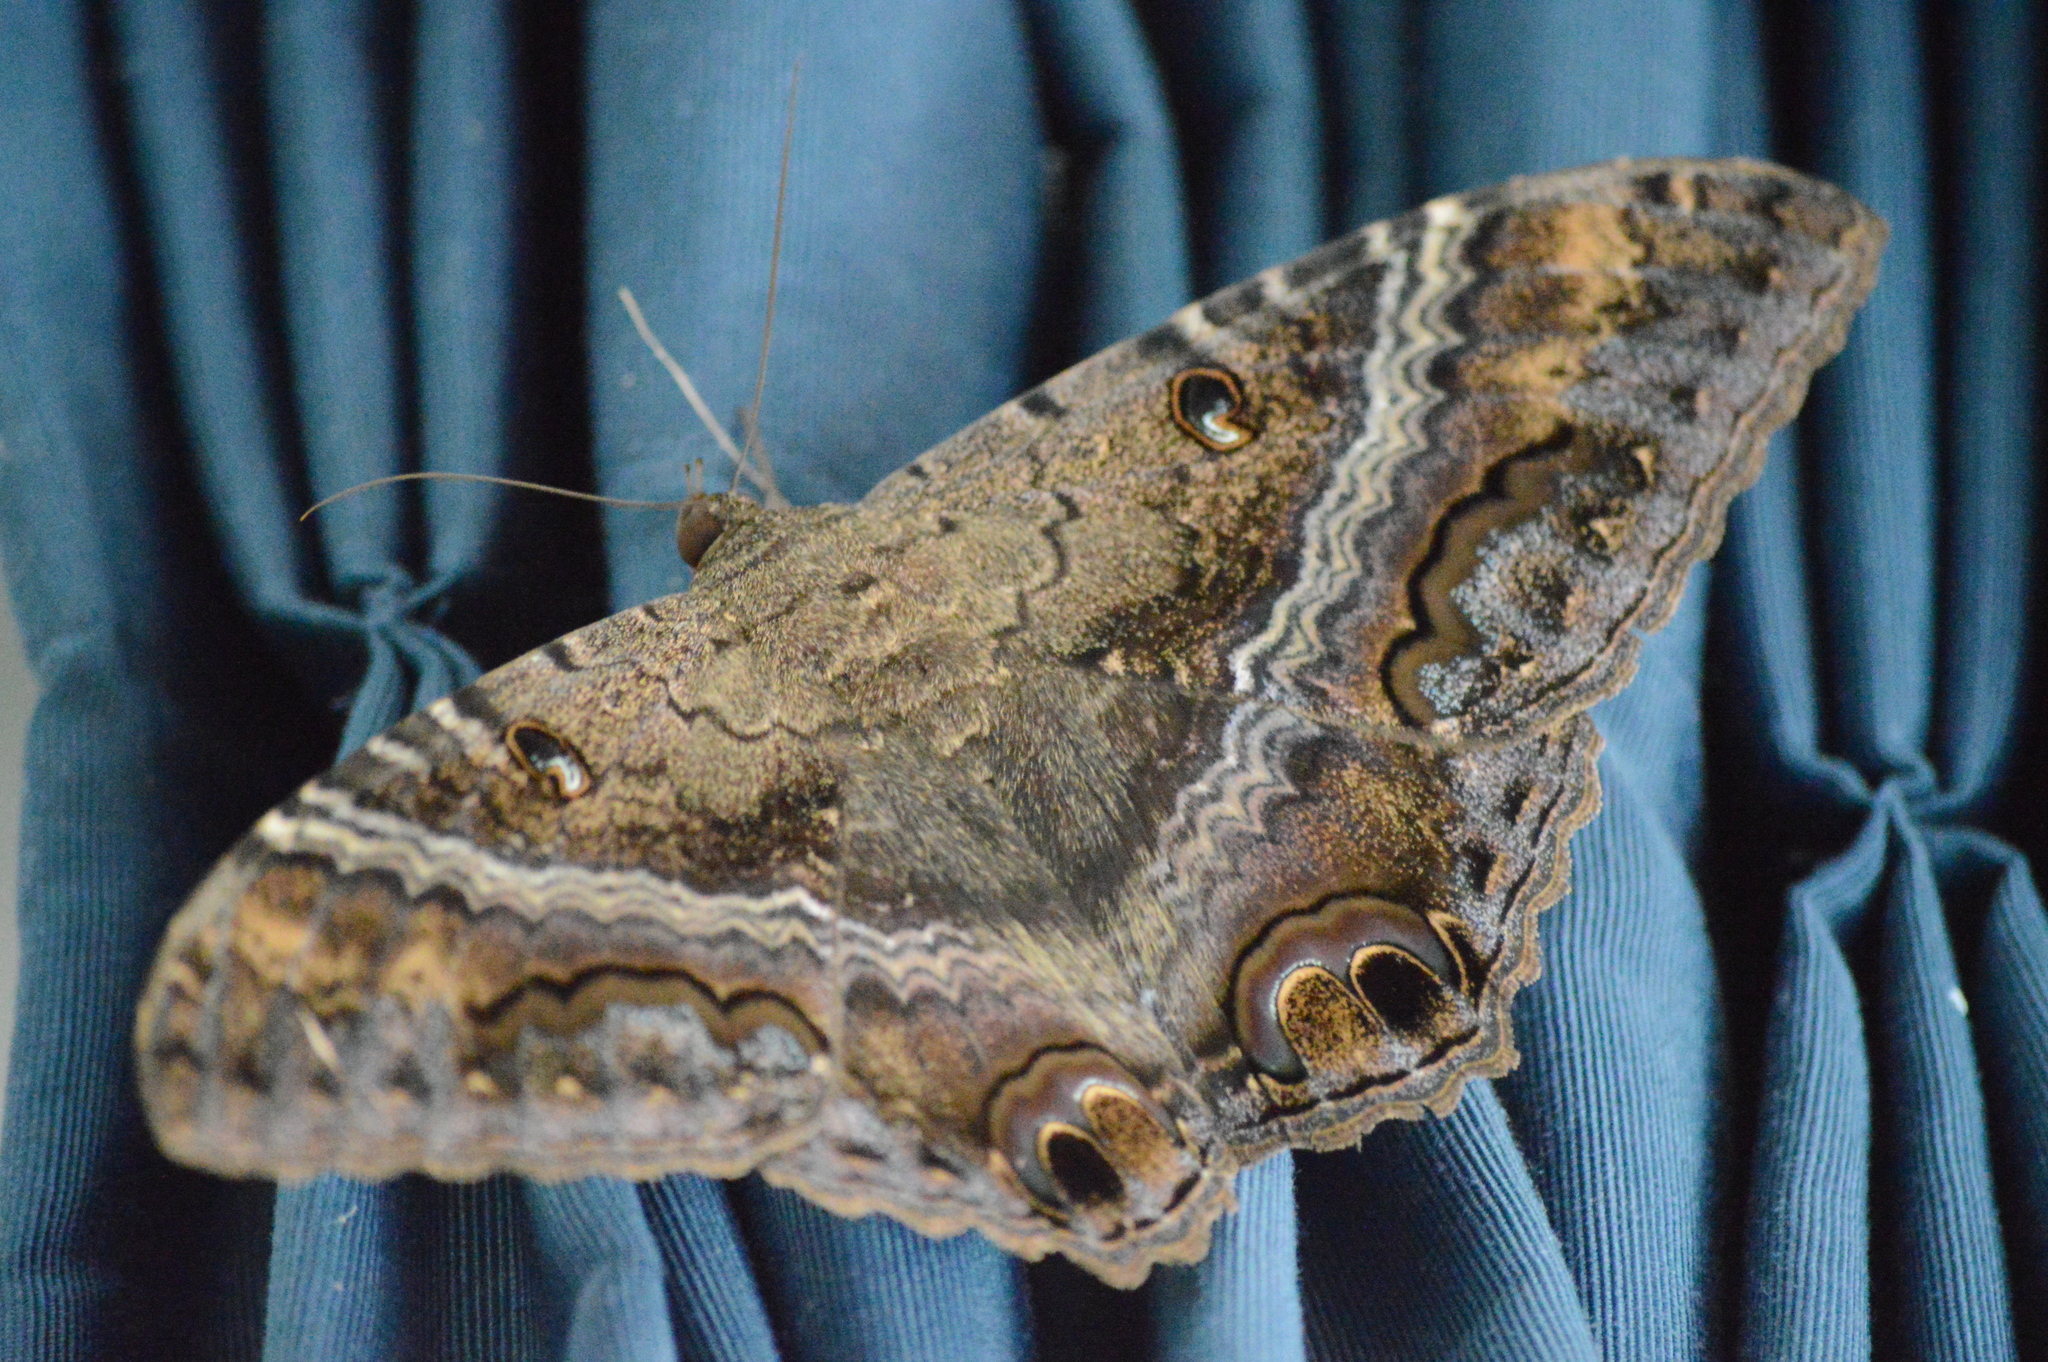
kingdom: Animalia
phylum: Arthropoda
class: Insecta
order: Lepidoptera
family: Erebidae
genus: Ascalapha
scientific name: Ascalapha odorata
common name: Black witch
